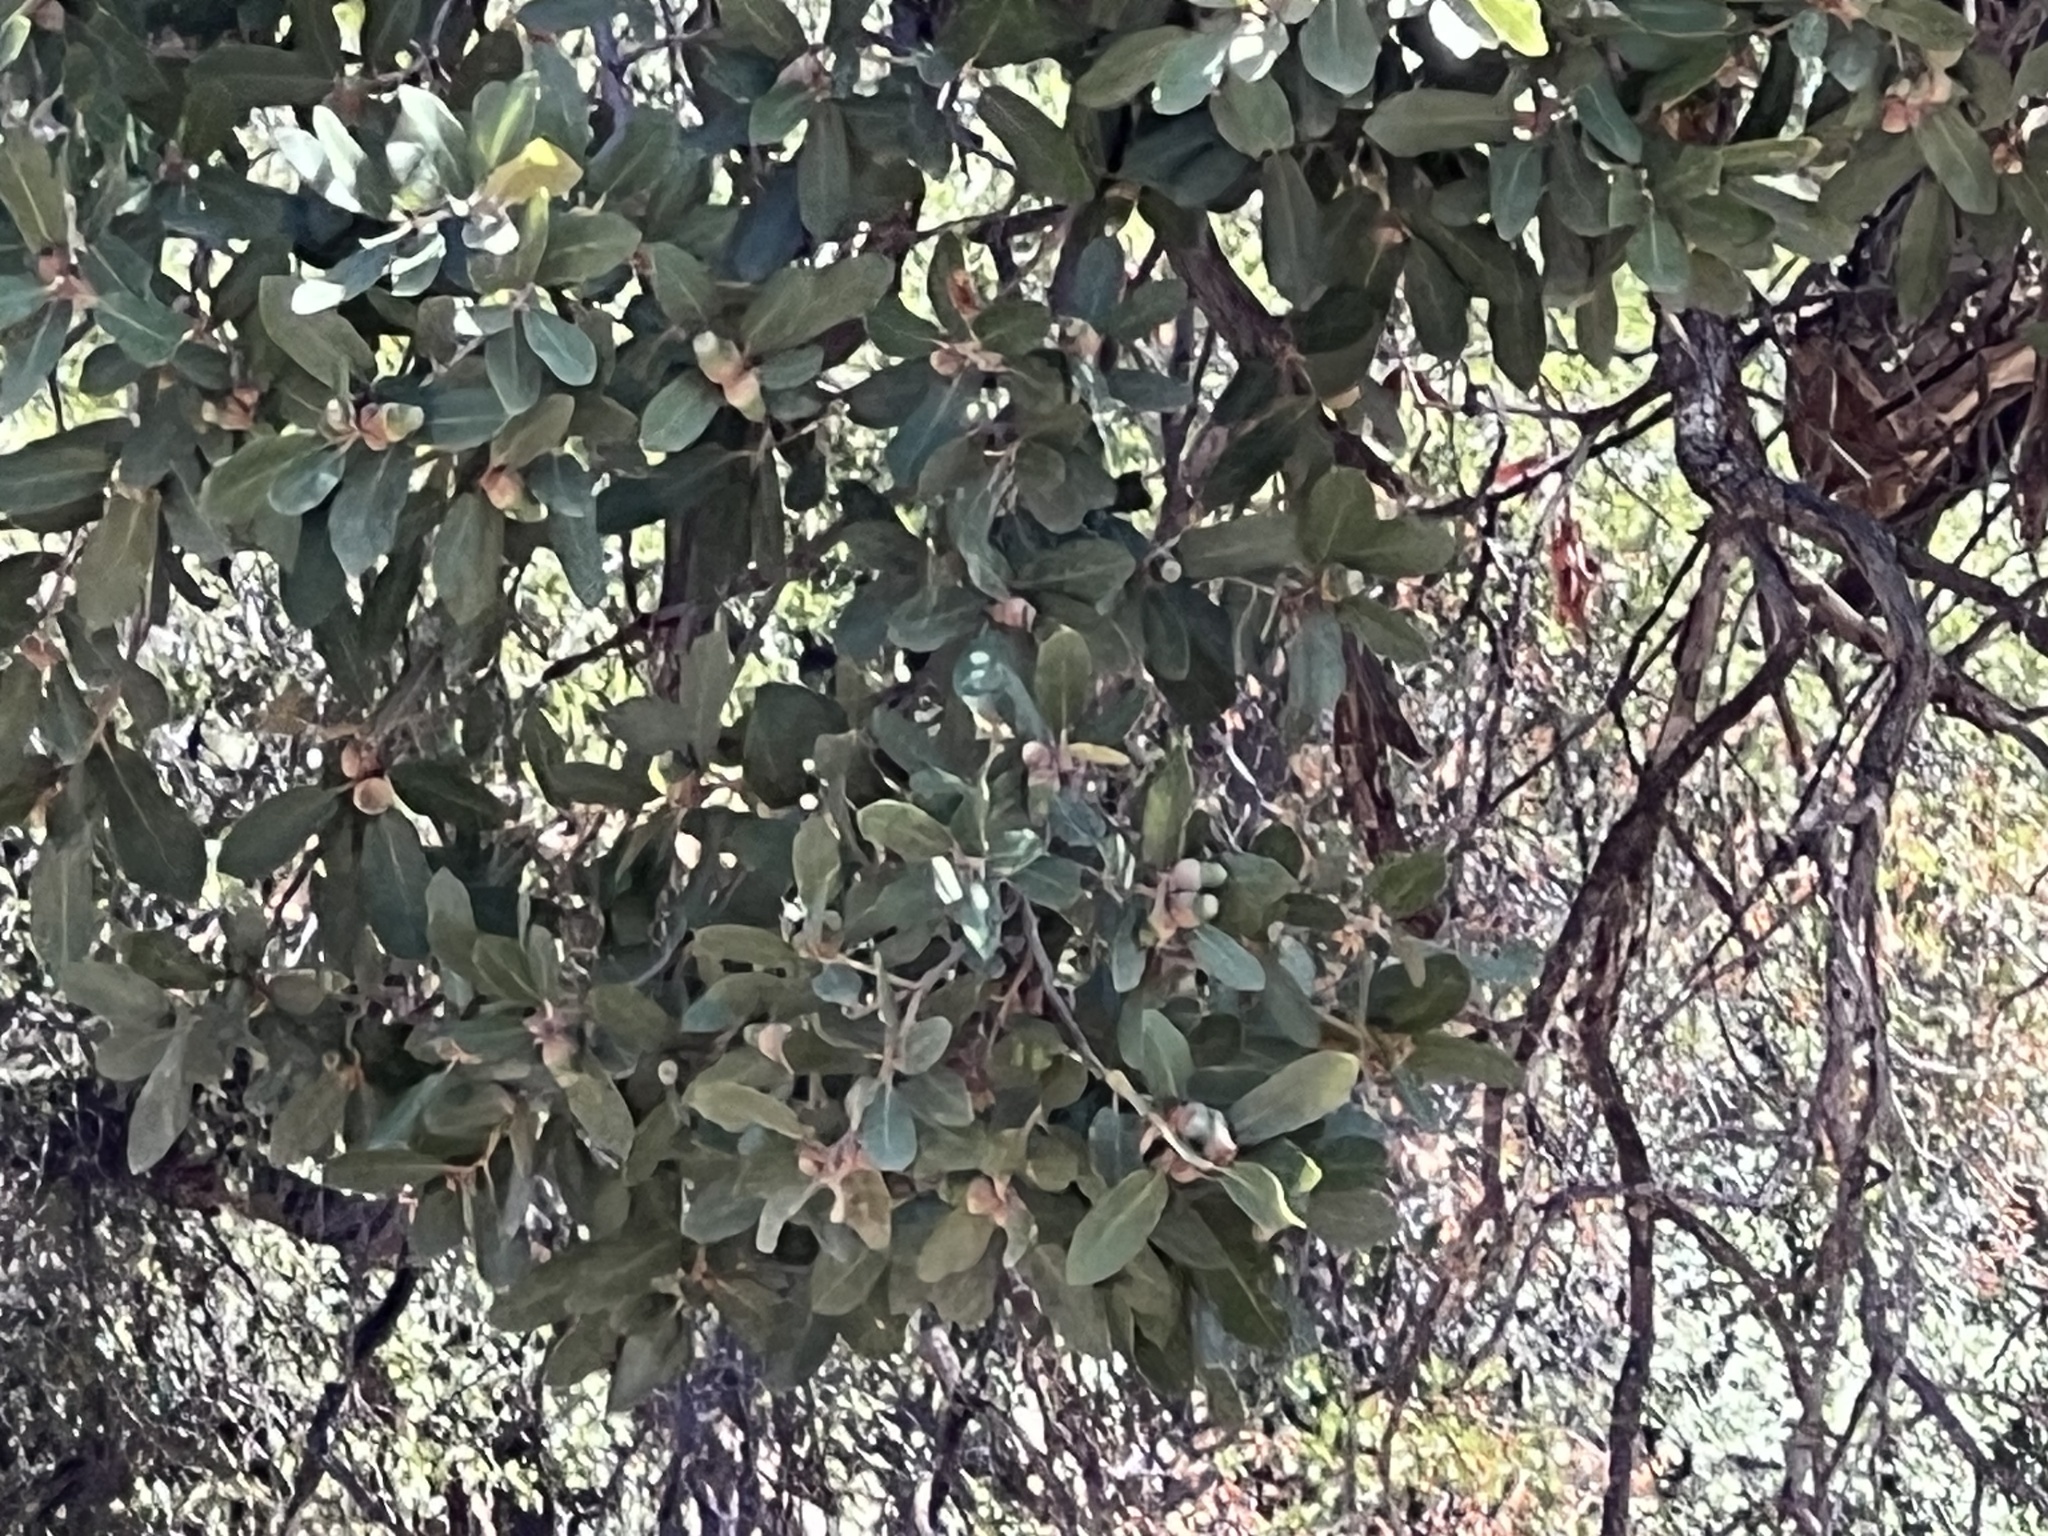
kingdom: Plantae
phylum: Tracheophyta
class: Magnoliopsida
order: Fagales
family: Fagaceae
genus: Quercus
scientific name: Quercus arizonica
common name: Arizona white oak
